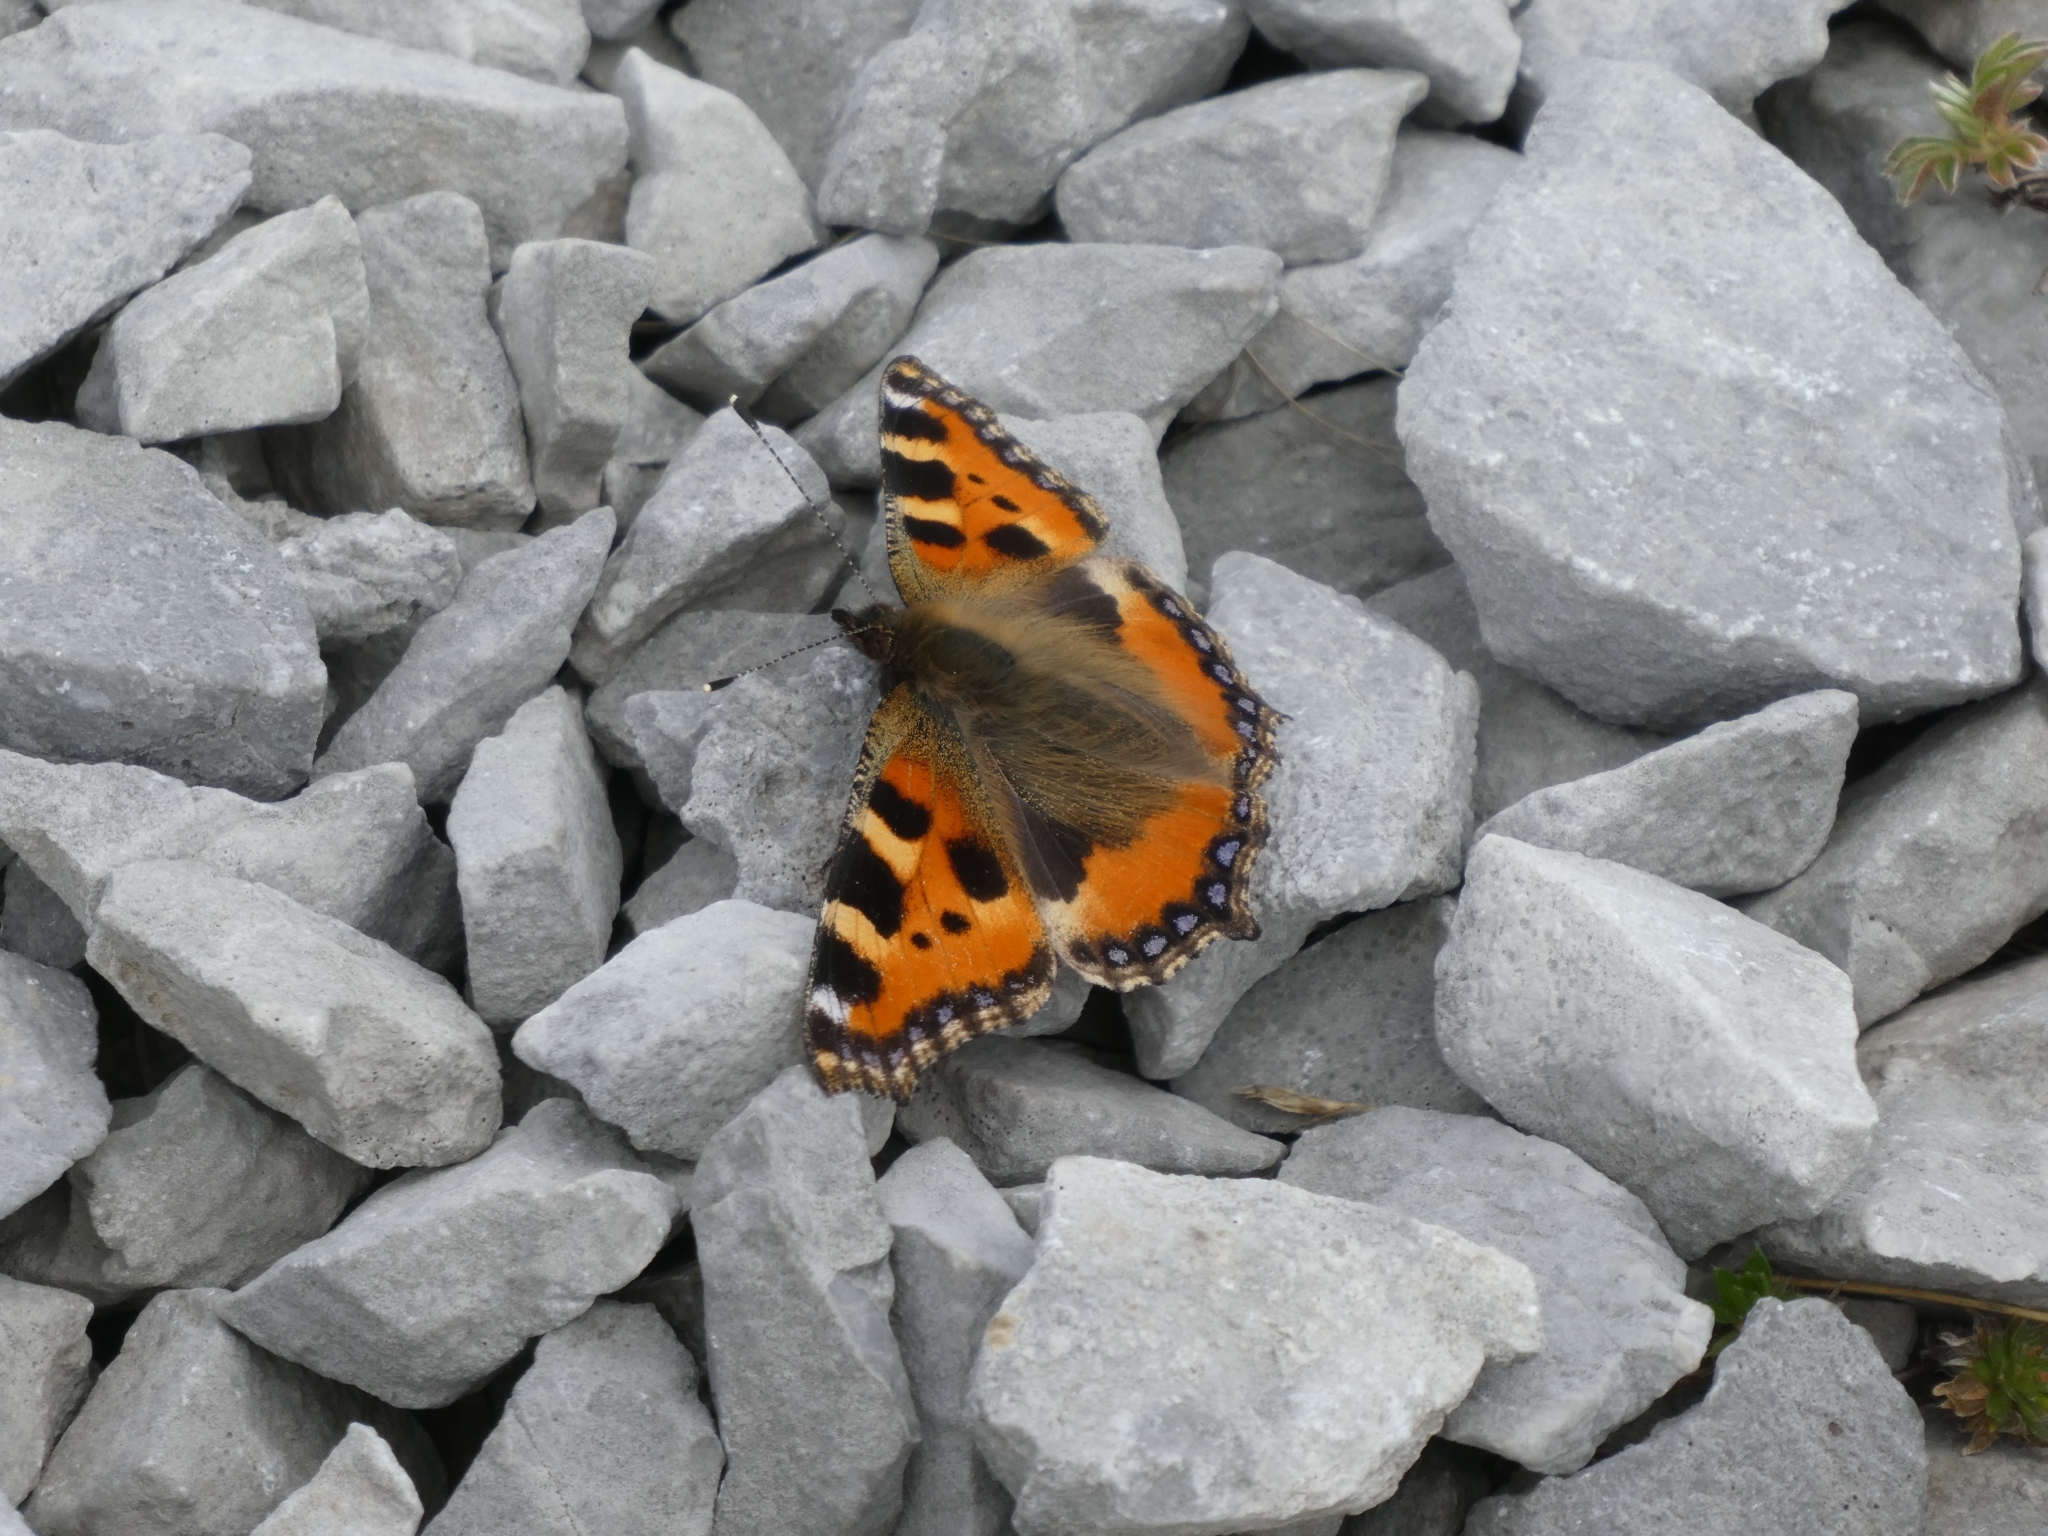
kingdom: Animalia
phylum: Arthropoda
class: Insecta
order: Lepidoptera
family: Nymphalidae
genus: Aglais
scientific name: Aglais urticae
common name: Small tortoiseshell
